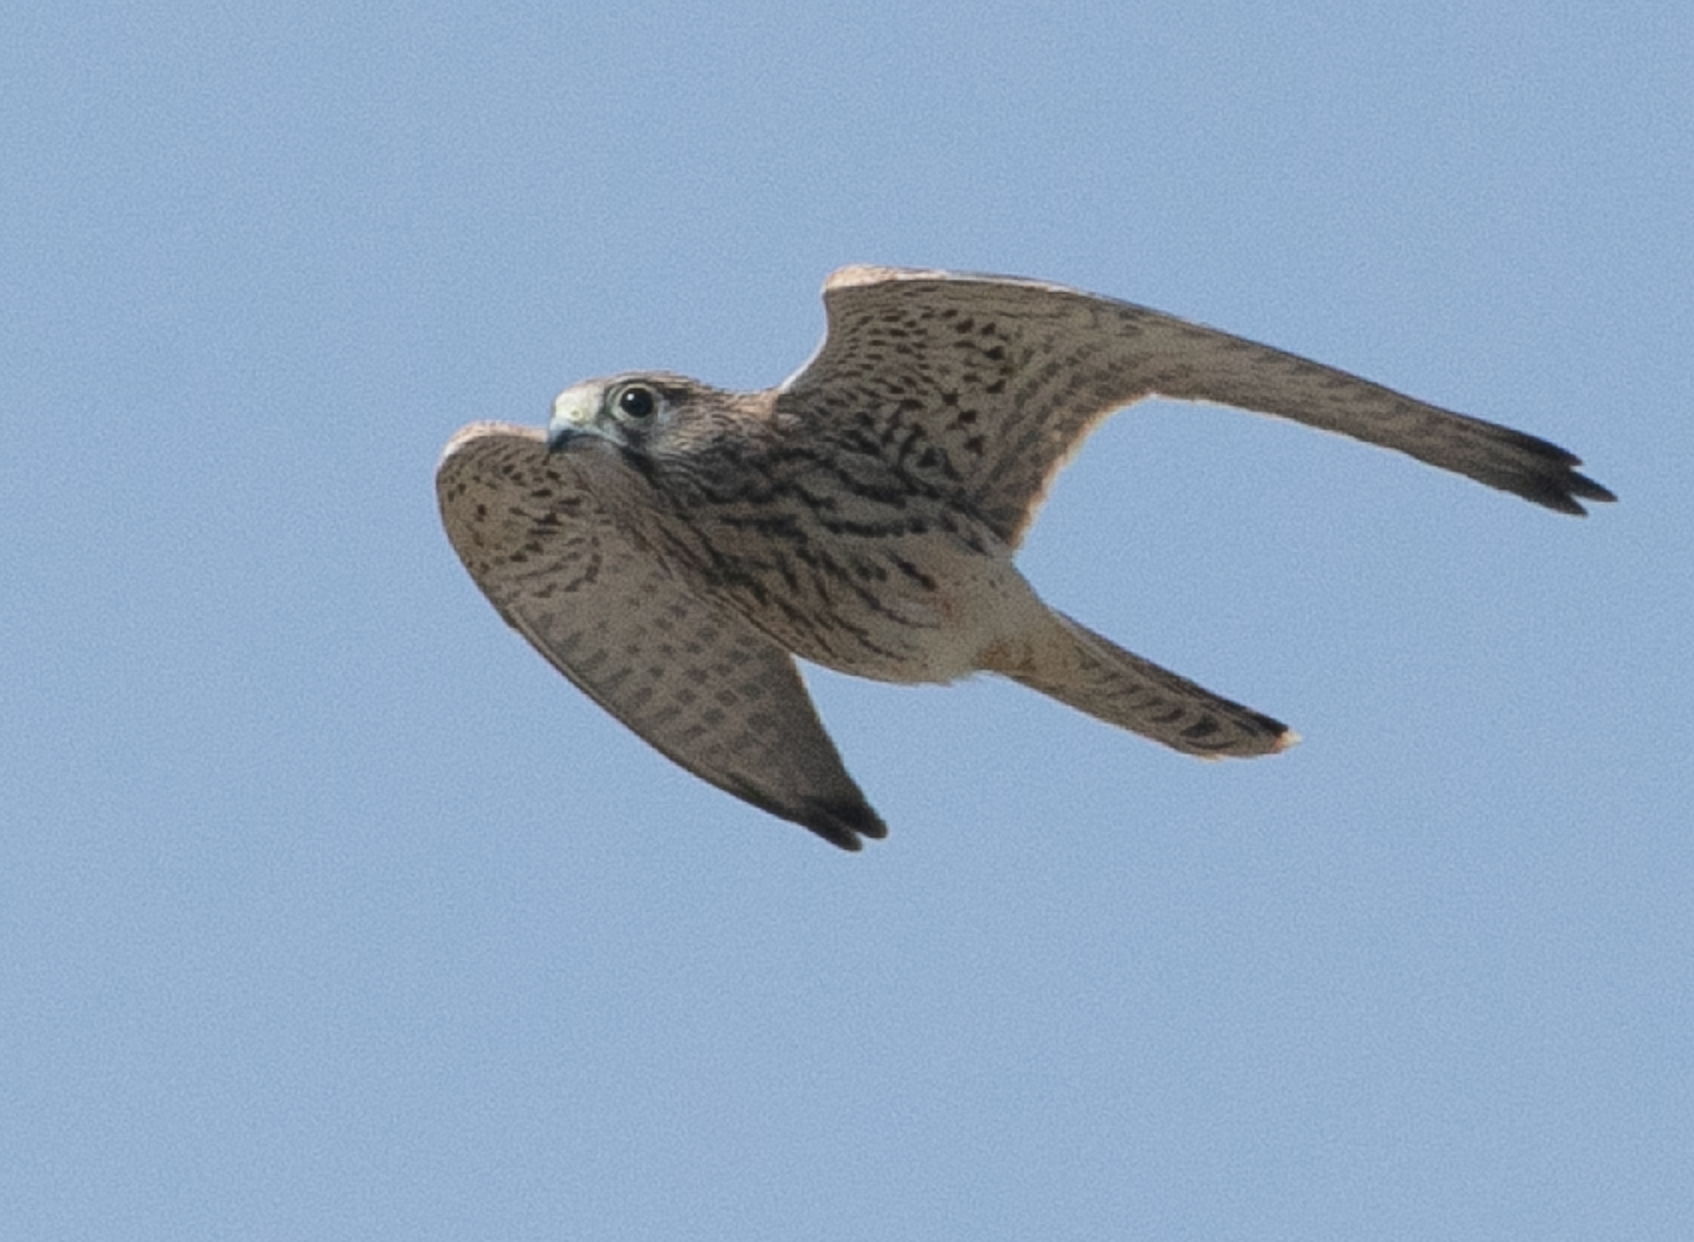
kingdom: Animalia
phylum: Chordata
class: Aves
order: Falconiformes
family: Falconidae
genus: Falco
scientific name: Falco tinnunculus
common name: Common kestrel
